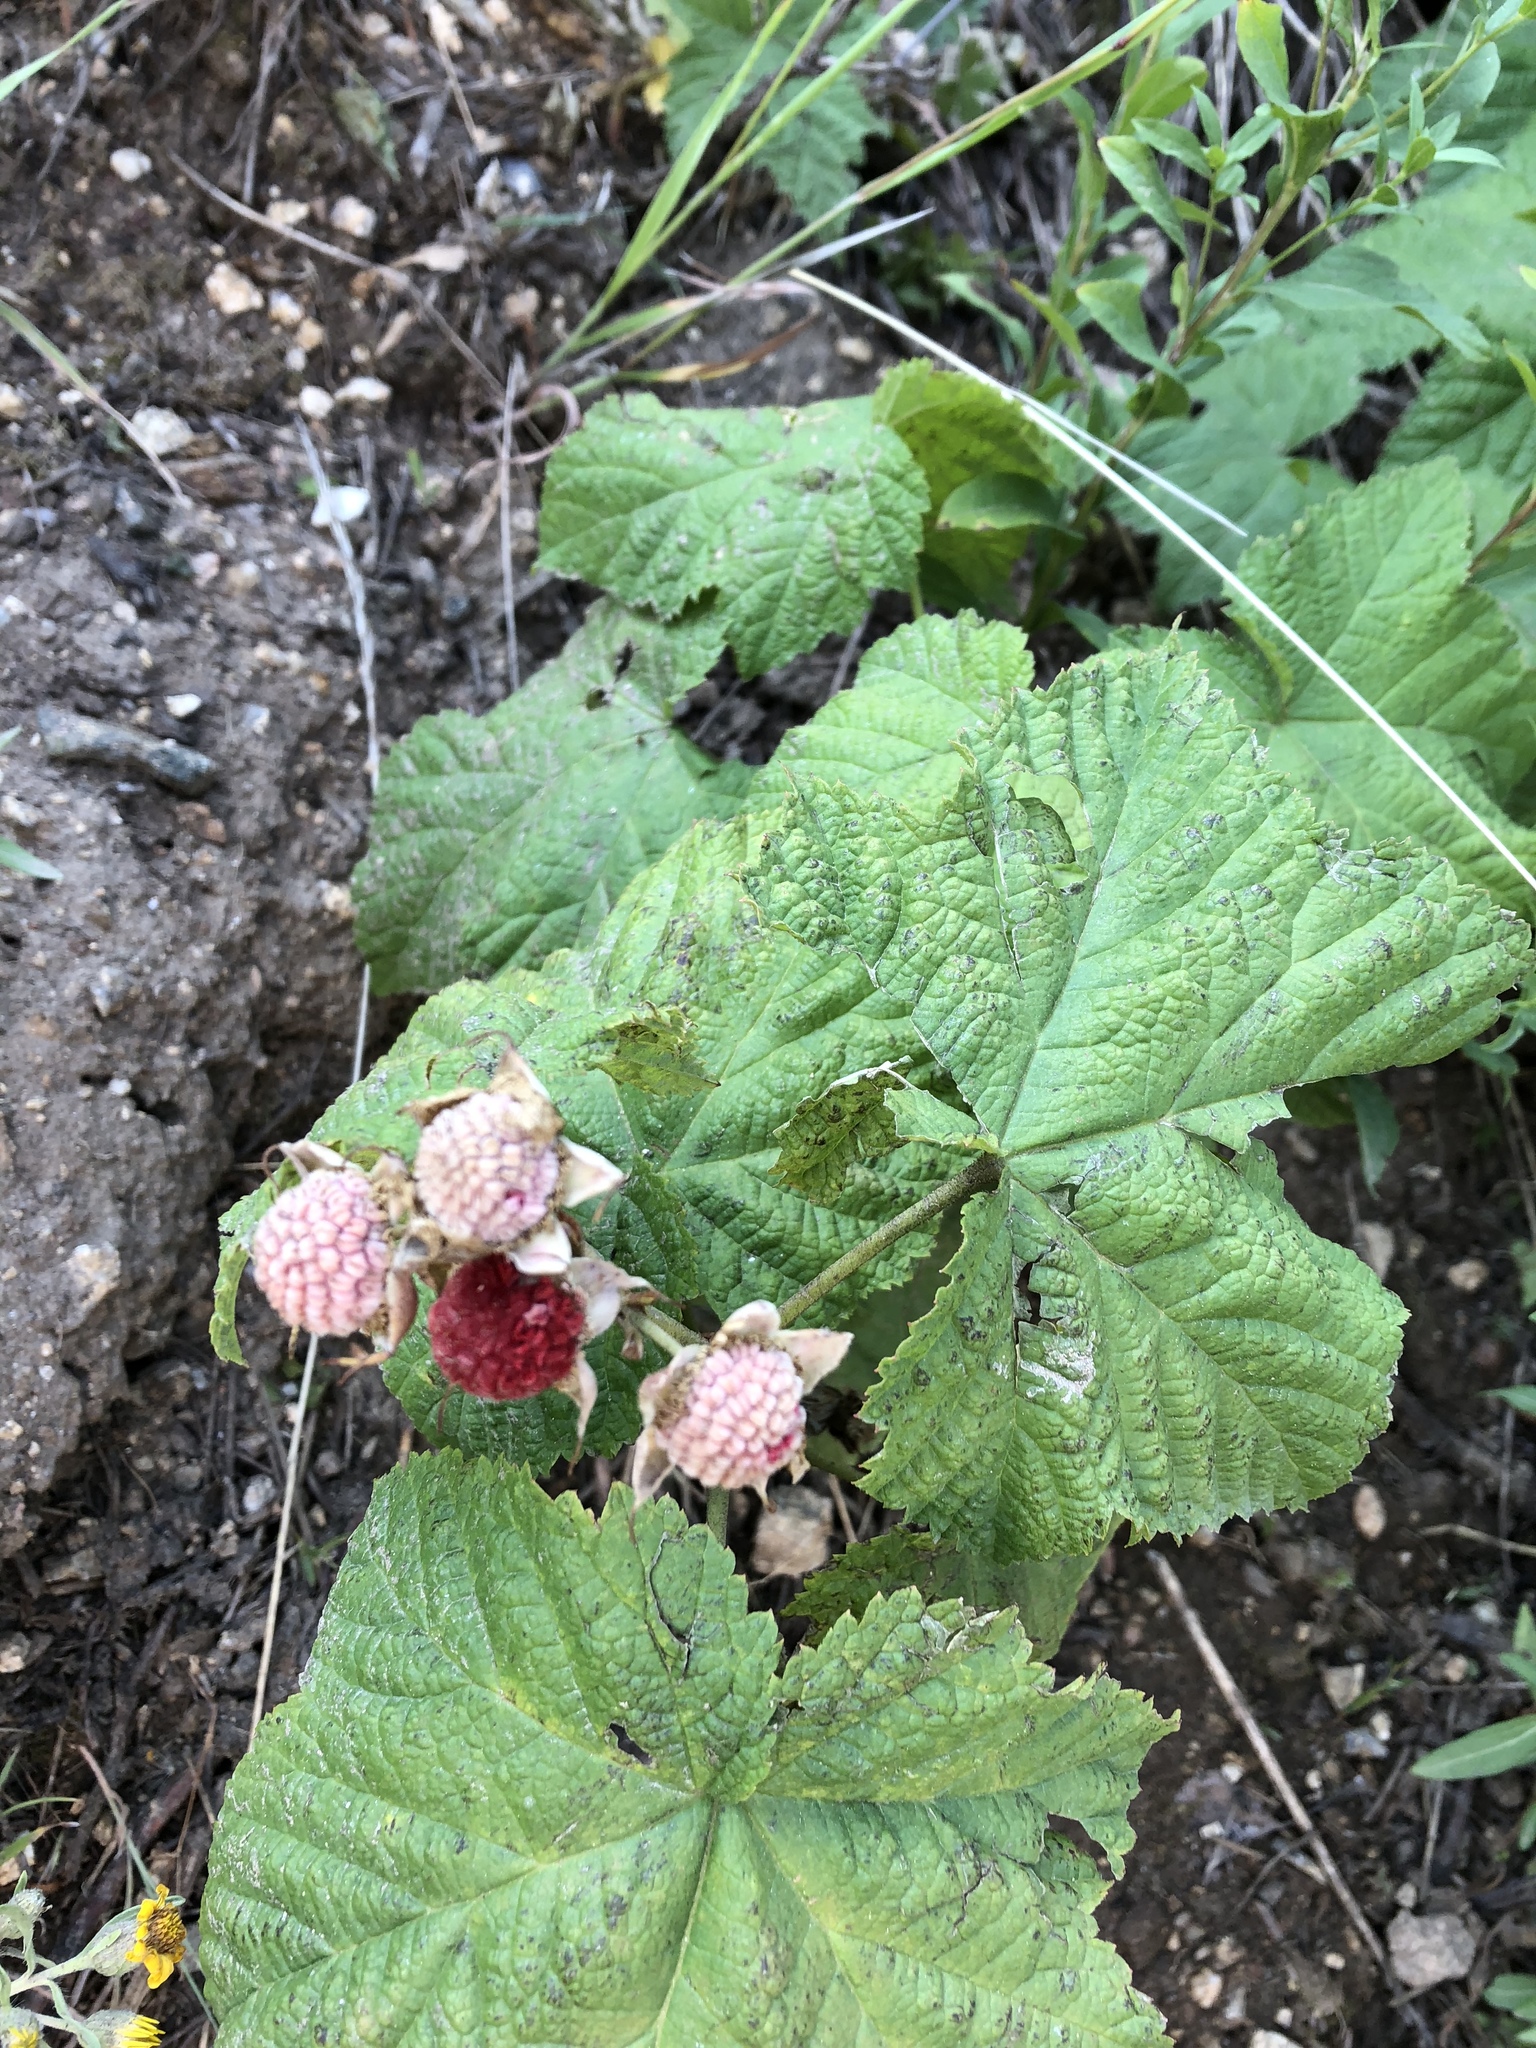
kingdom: Plantae
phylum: Tracheophyta
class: Magnoliopsida
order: Rosales
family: Rosaceae
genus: Rubus
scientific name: Rubus parviflorus
